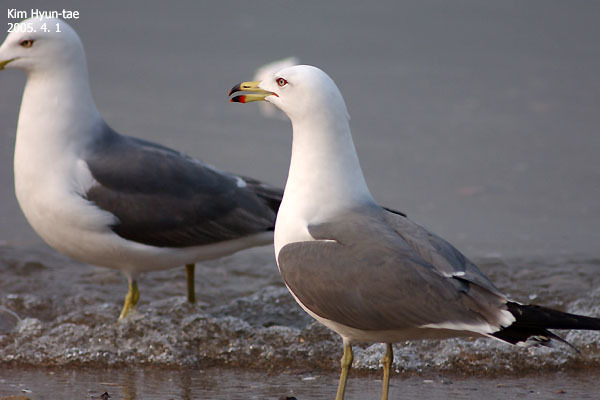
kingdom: Animalia
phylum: Chordata
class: Aves
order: Charadriiformes
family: Laridae
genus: Larus
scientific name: Larus crassirostris
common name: Black-tailed gull
